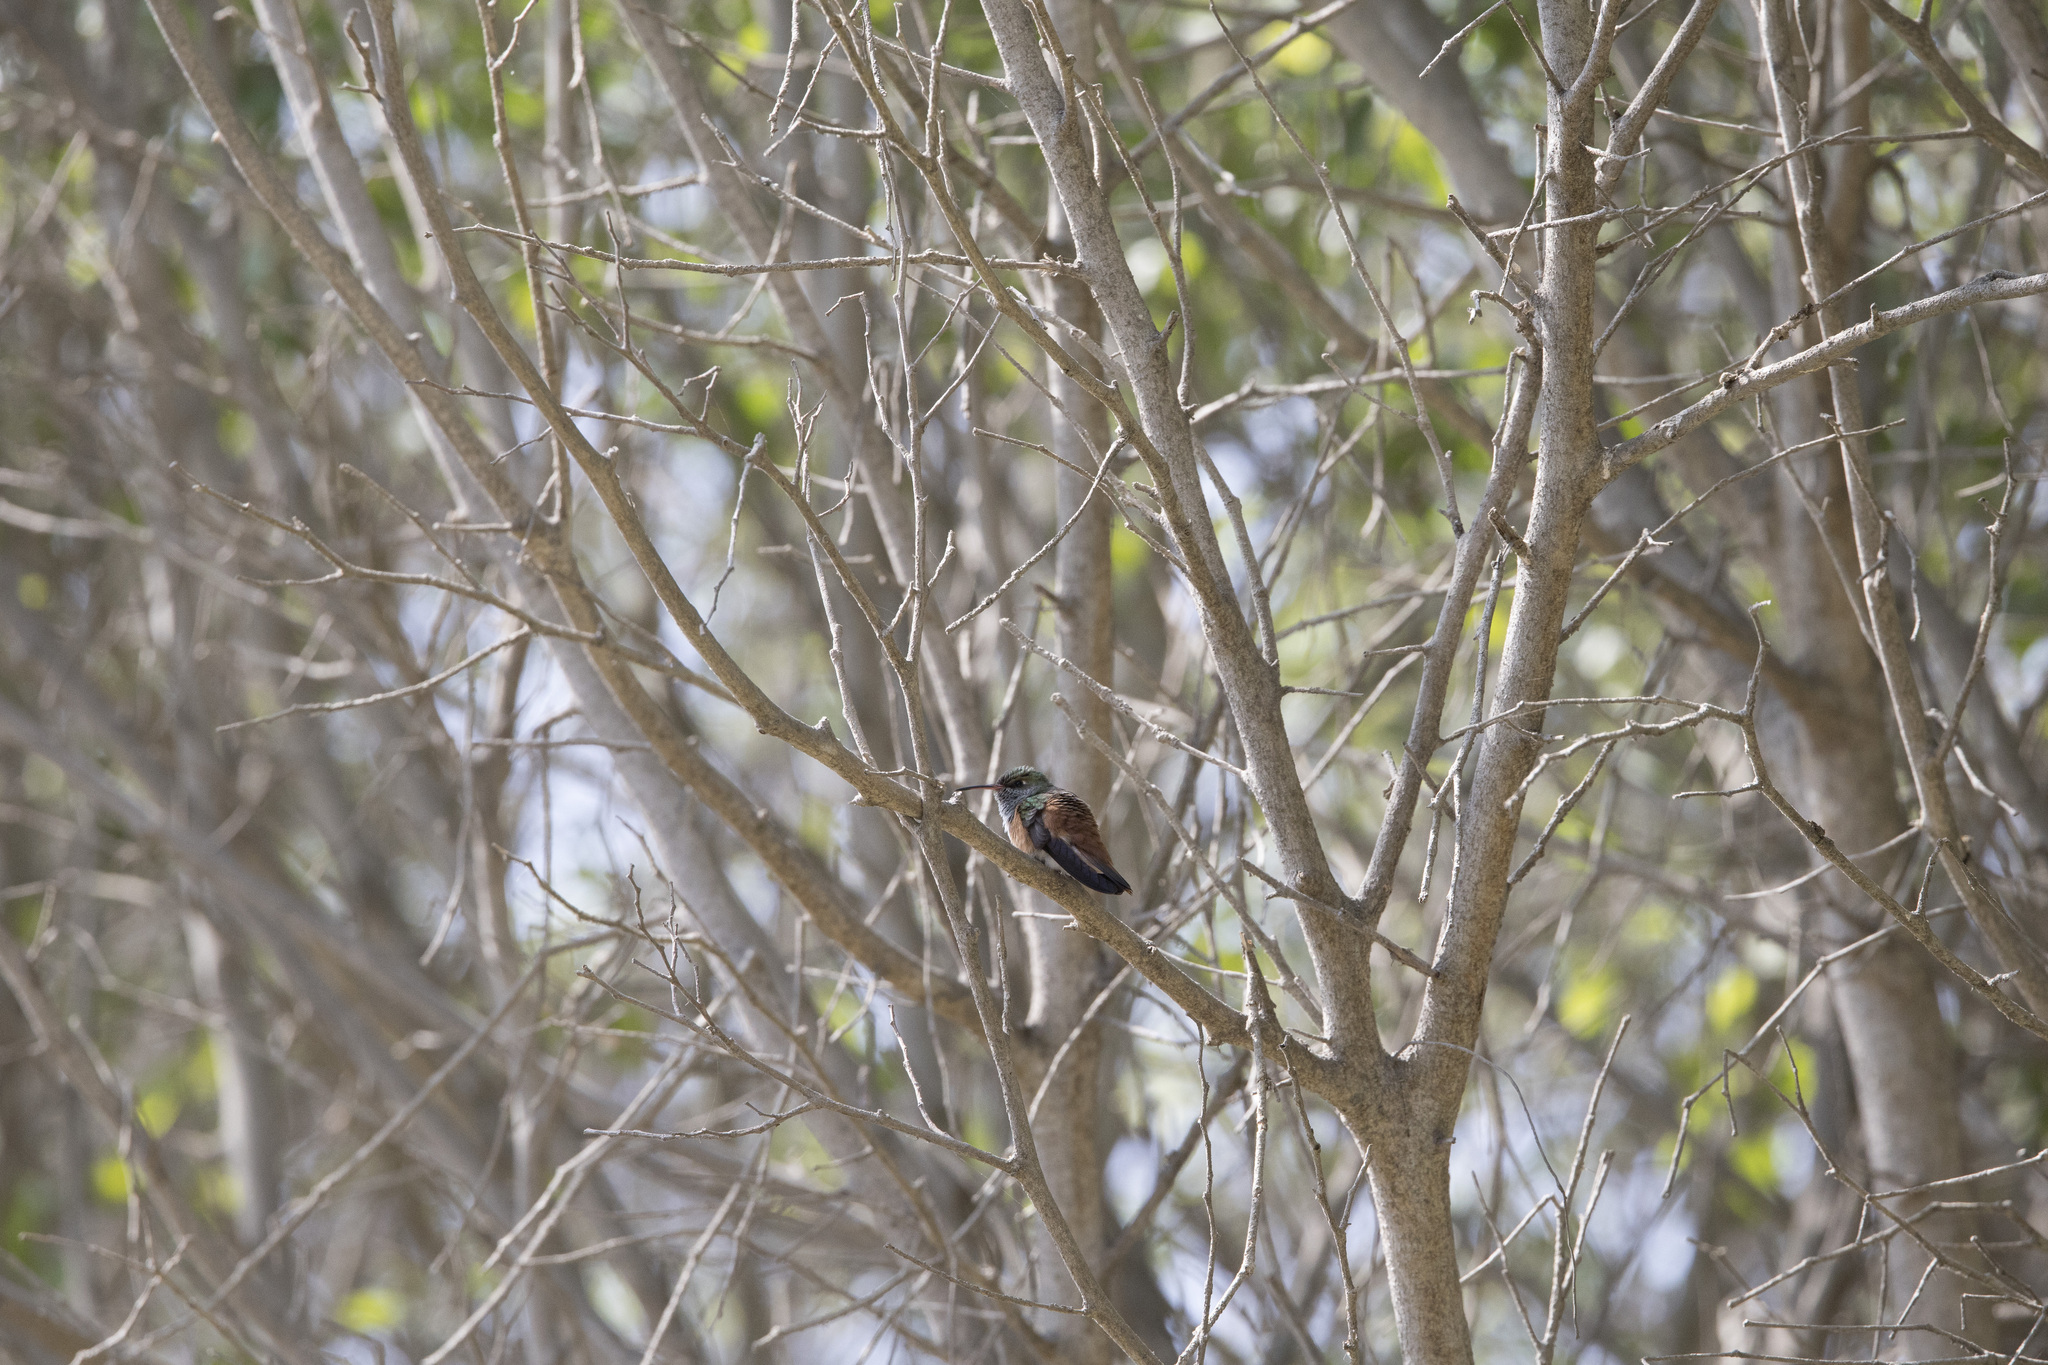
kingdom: Animalia
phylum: Chordata
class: Aves
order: Apodiformes
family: Trochilidae
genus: Amazilis
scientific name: Amazilis amazilia
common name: Amazilia hummingbird
